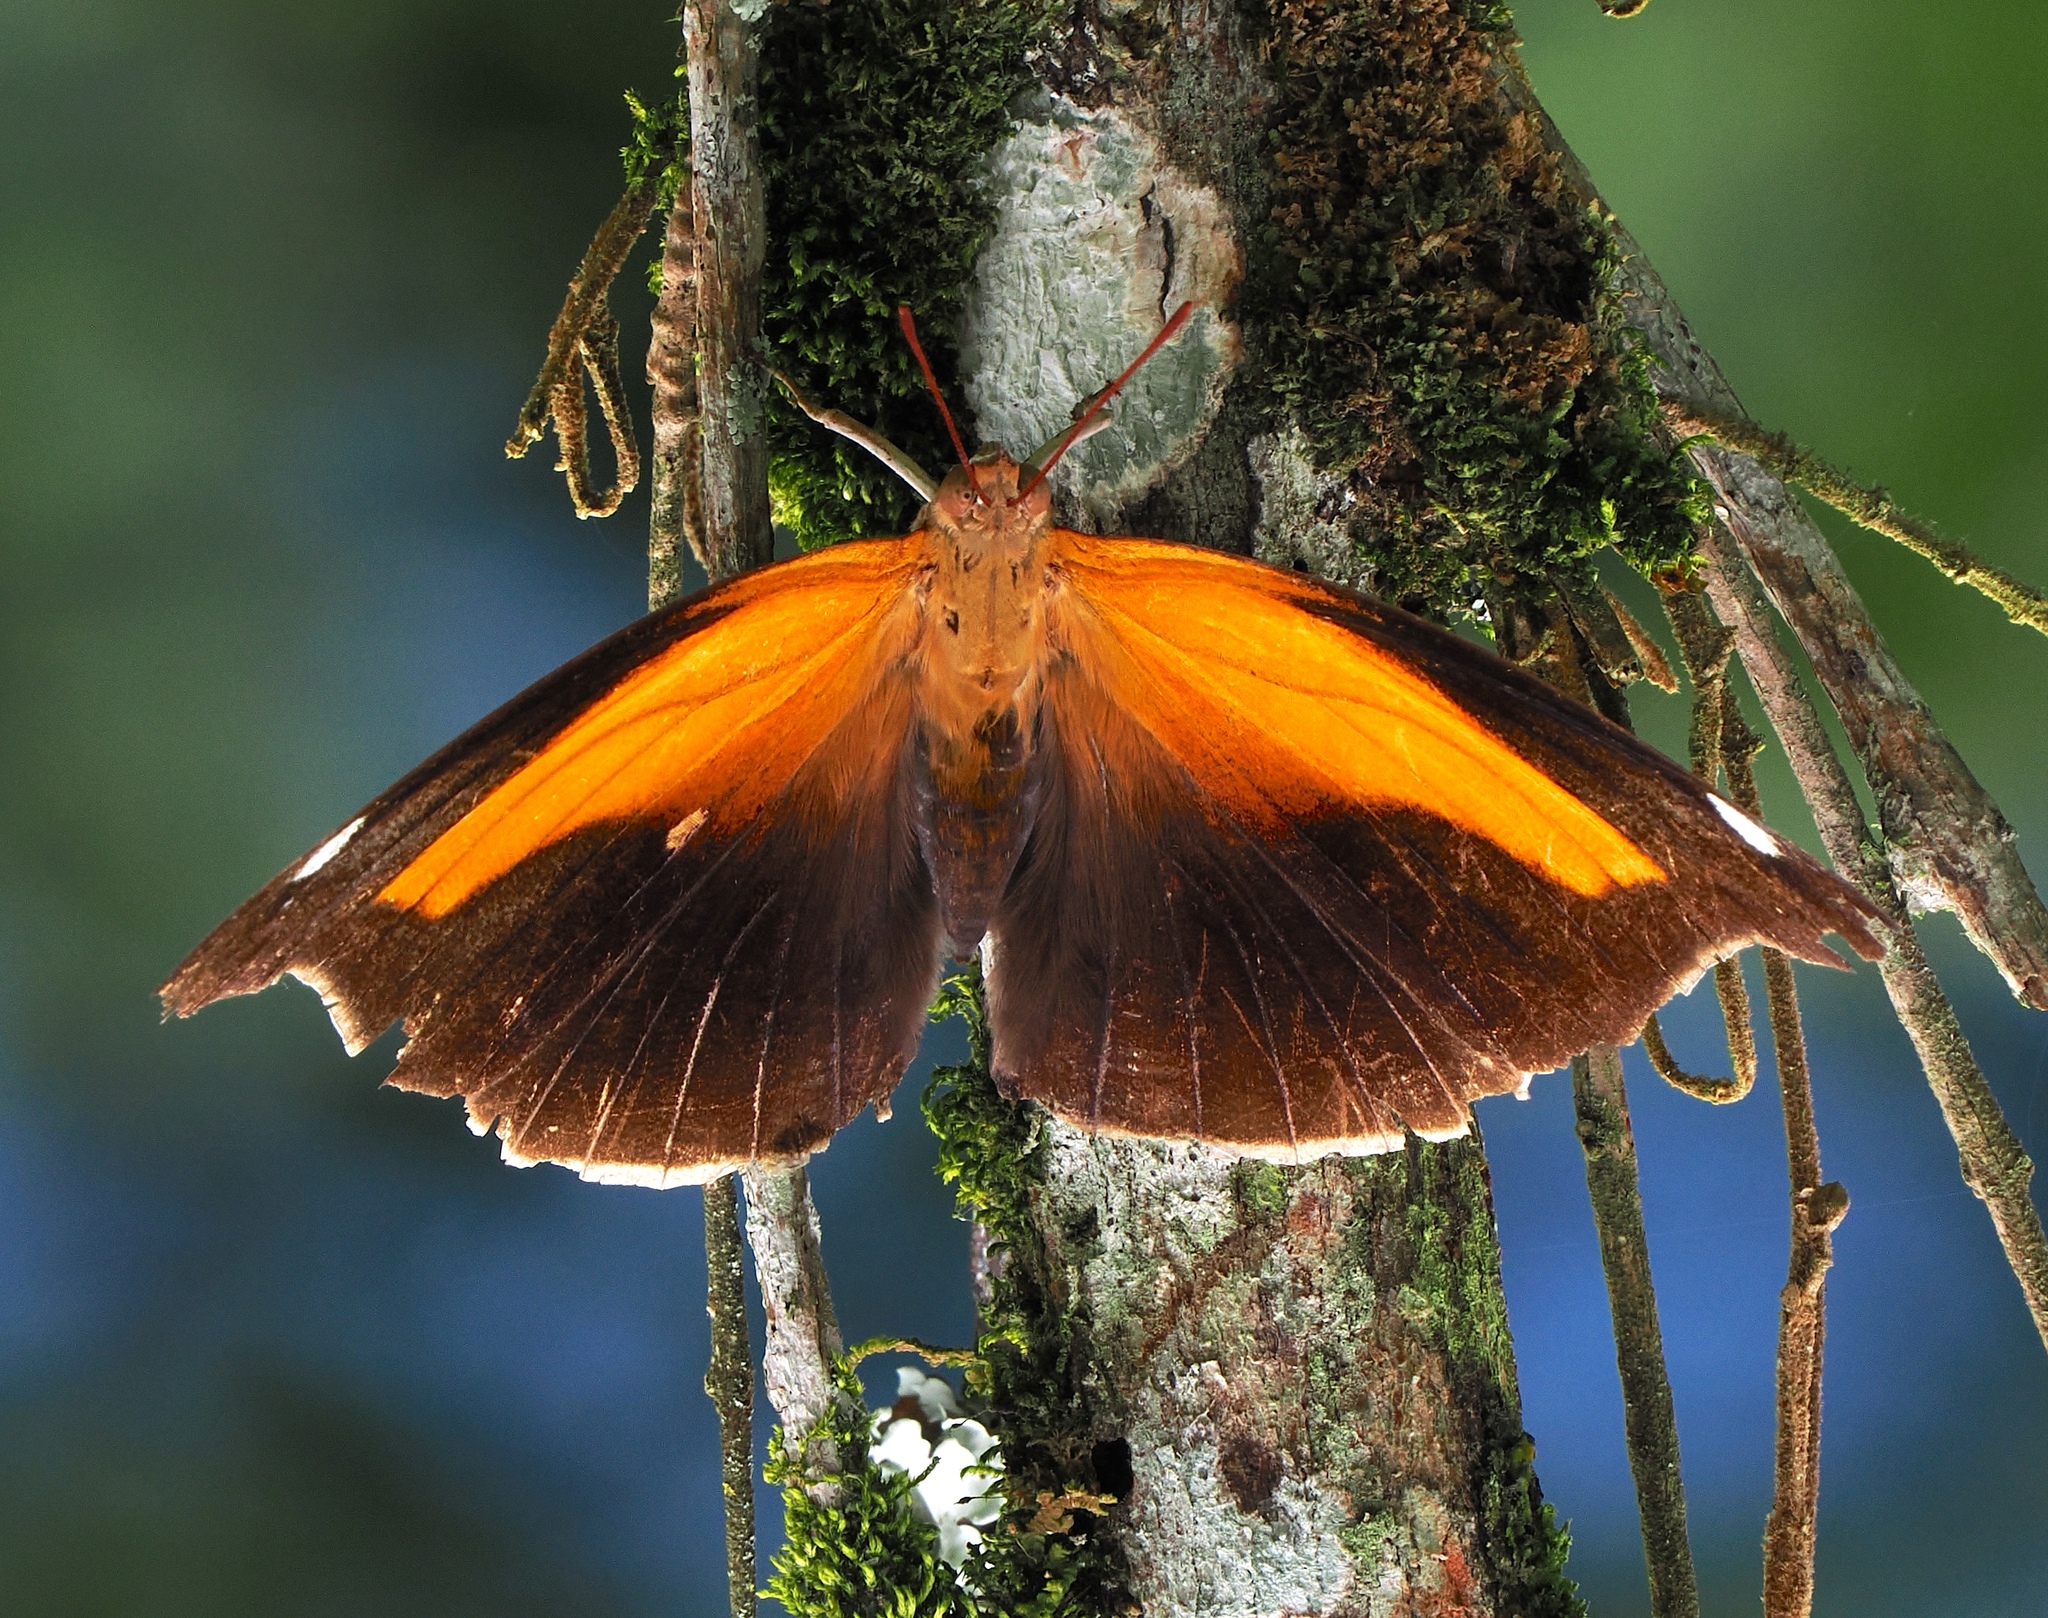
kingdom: Animalia
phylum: Arthropoda
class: Insecta
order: Lepidoptera
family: Nymphalidae
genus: Historis
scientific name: Historis odius
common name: Orion cecropian
